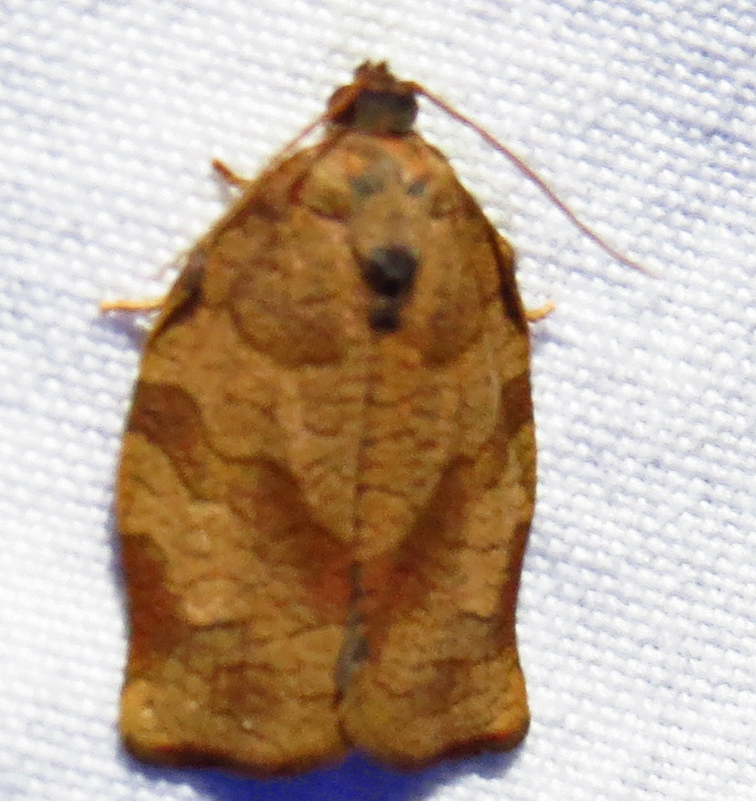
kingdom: Animalia
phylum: Arthropoda
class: Insecta
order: Lepidoptera
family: Tortricidae
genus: Choristoneura
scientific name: Choristoneura rosaceana
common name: Oblique-banded leafroller moth
